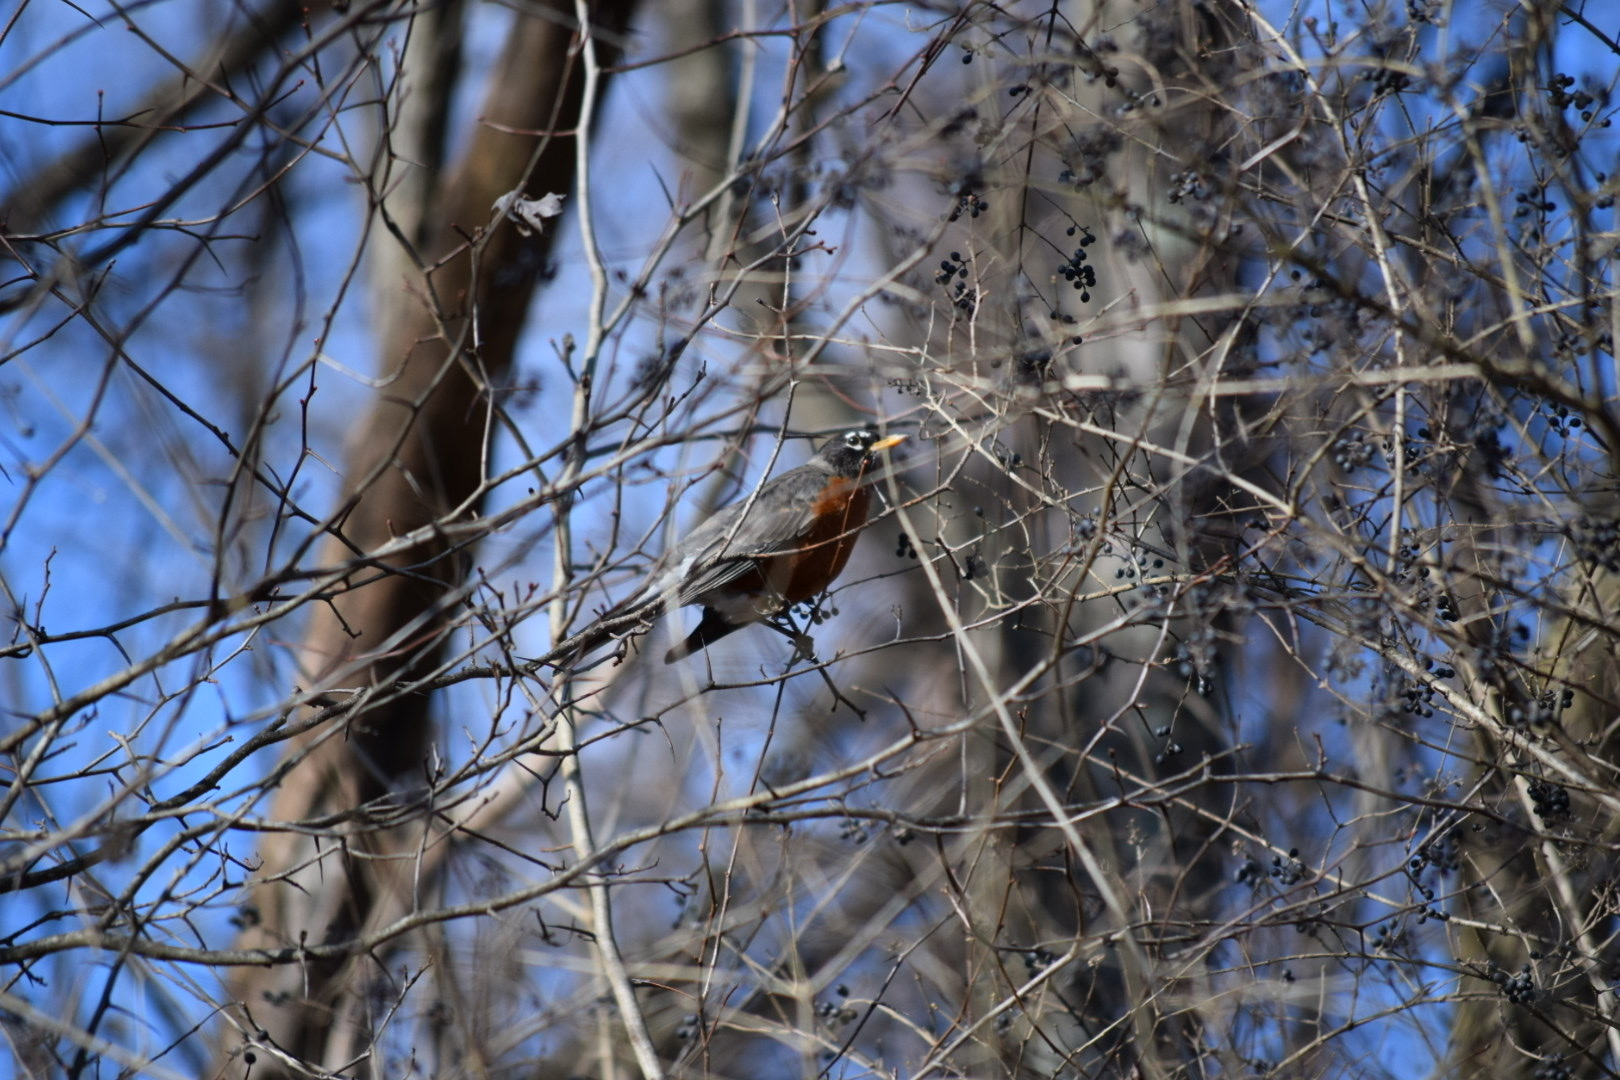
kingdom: Animalia
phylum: Chordata
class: Aves
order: Passeriformes
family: Turdidae
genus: Turdus
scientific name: Turdus migratorius
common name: American robin
